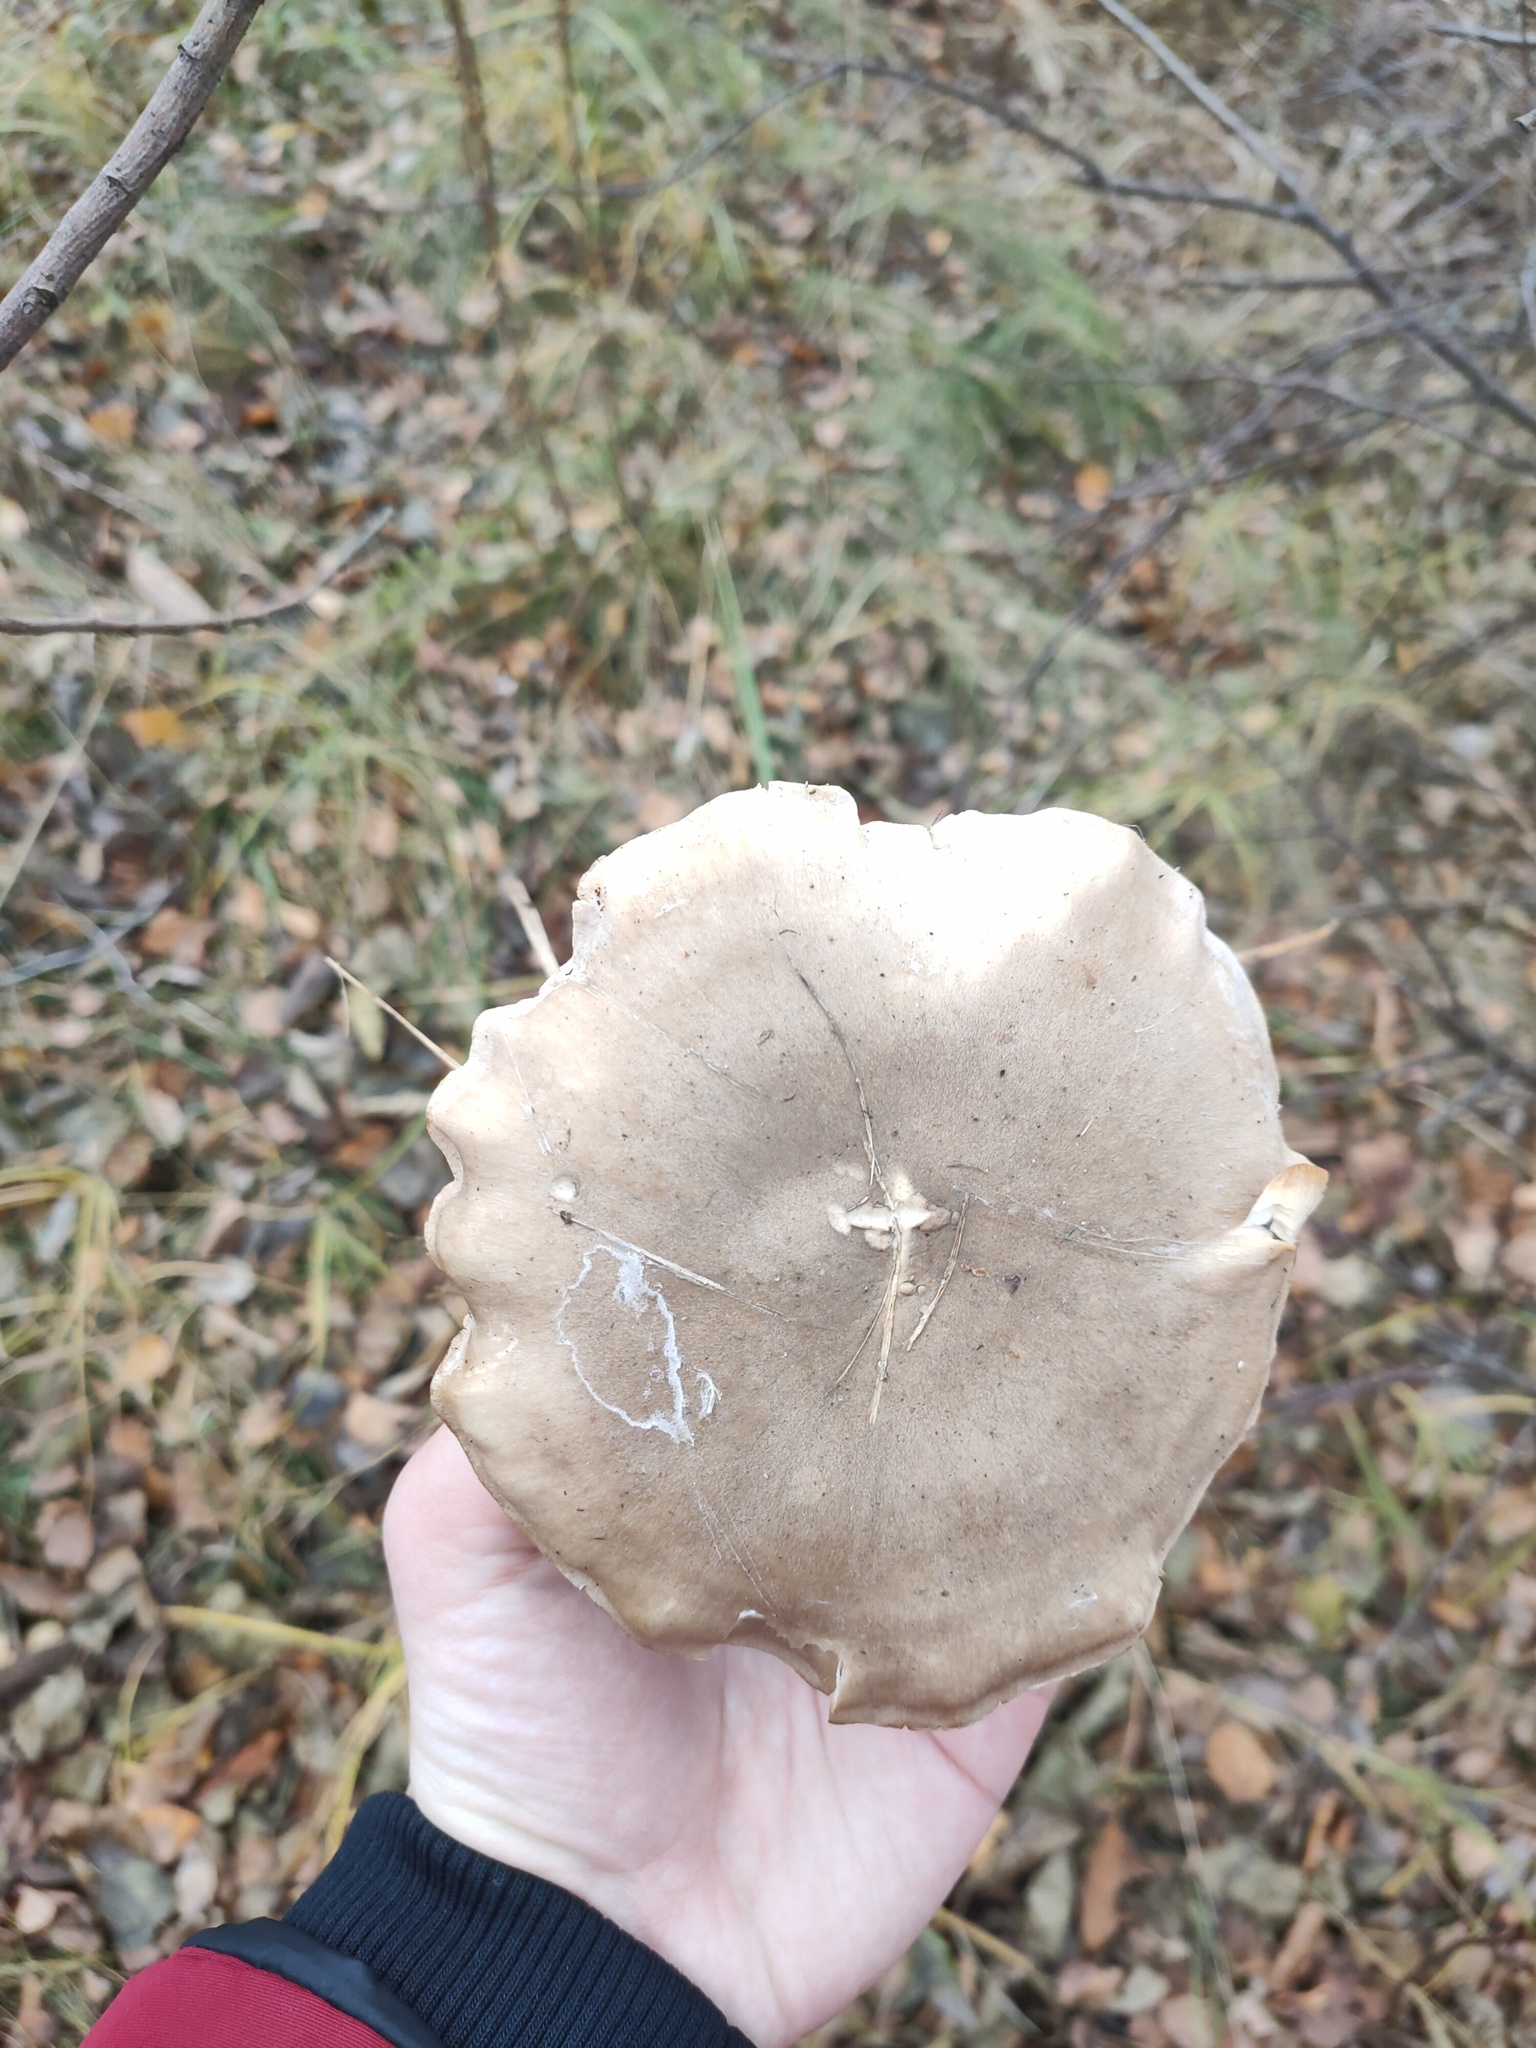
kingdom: Fungi
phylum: Basidiomycota
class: Agaricomycetes
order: Agaricales
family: Tricholomataceae
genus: Clitocybe
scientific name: Clitocybe nebularis
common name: Clouded agaric
